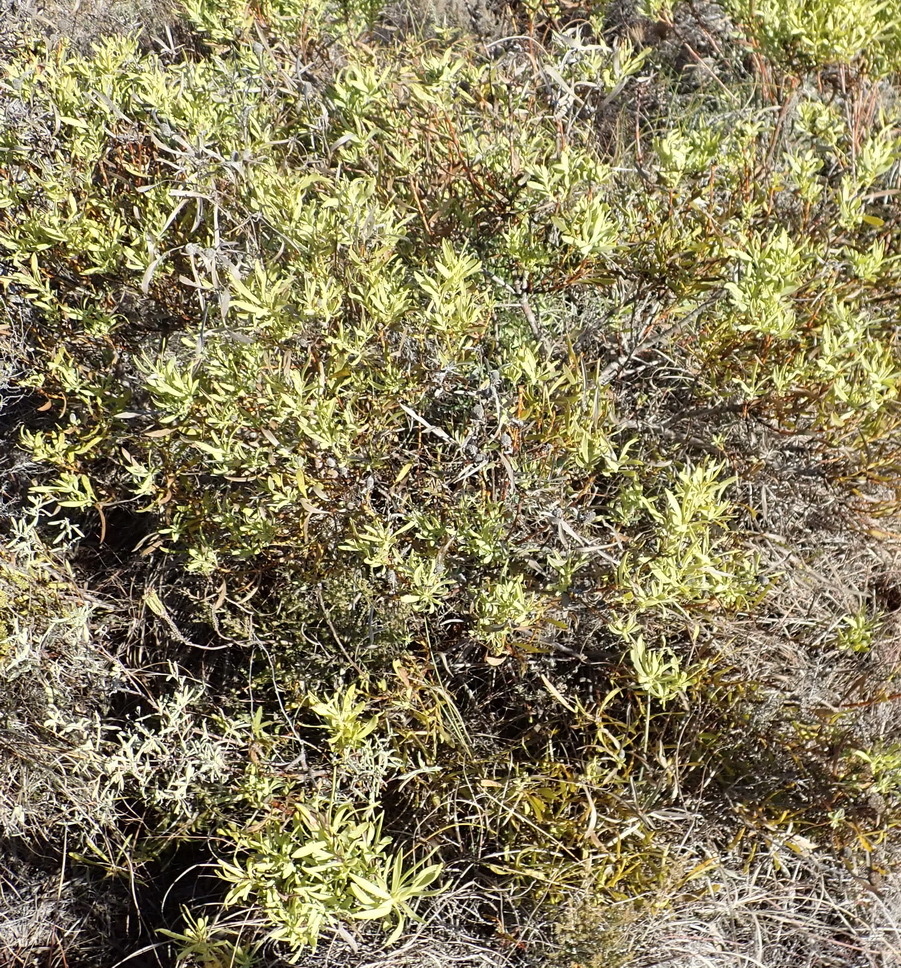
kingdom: Plantae
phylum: Tracheophyta
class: Magnoliopsida
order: Proteales
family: Proteaceae
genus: Leucadendron
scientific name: Leucadendron salignum
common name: Common sunshine conebush
